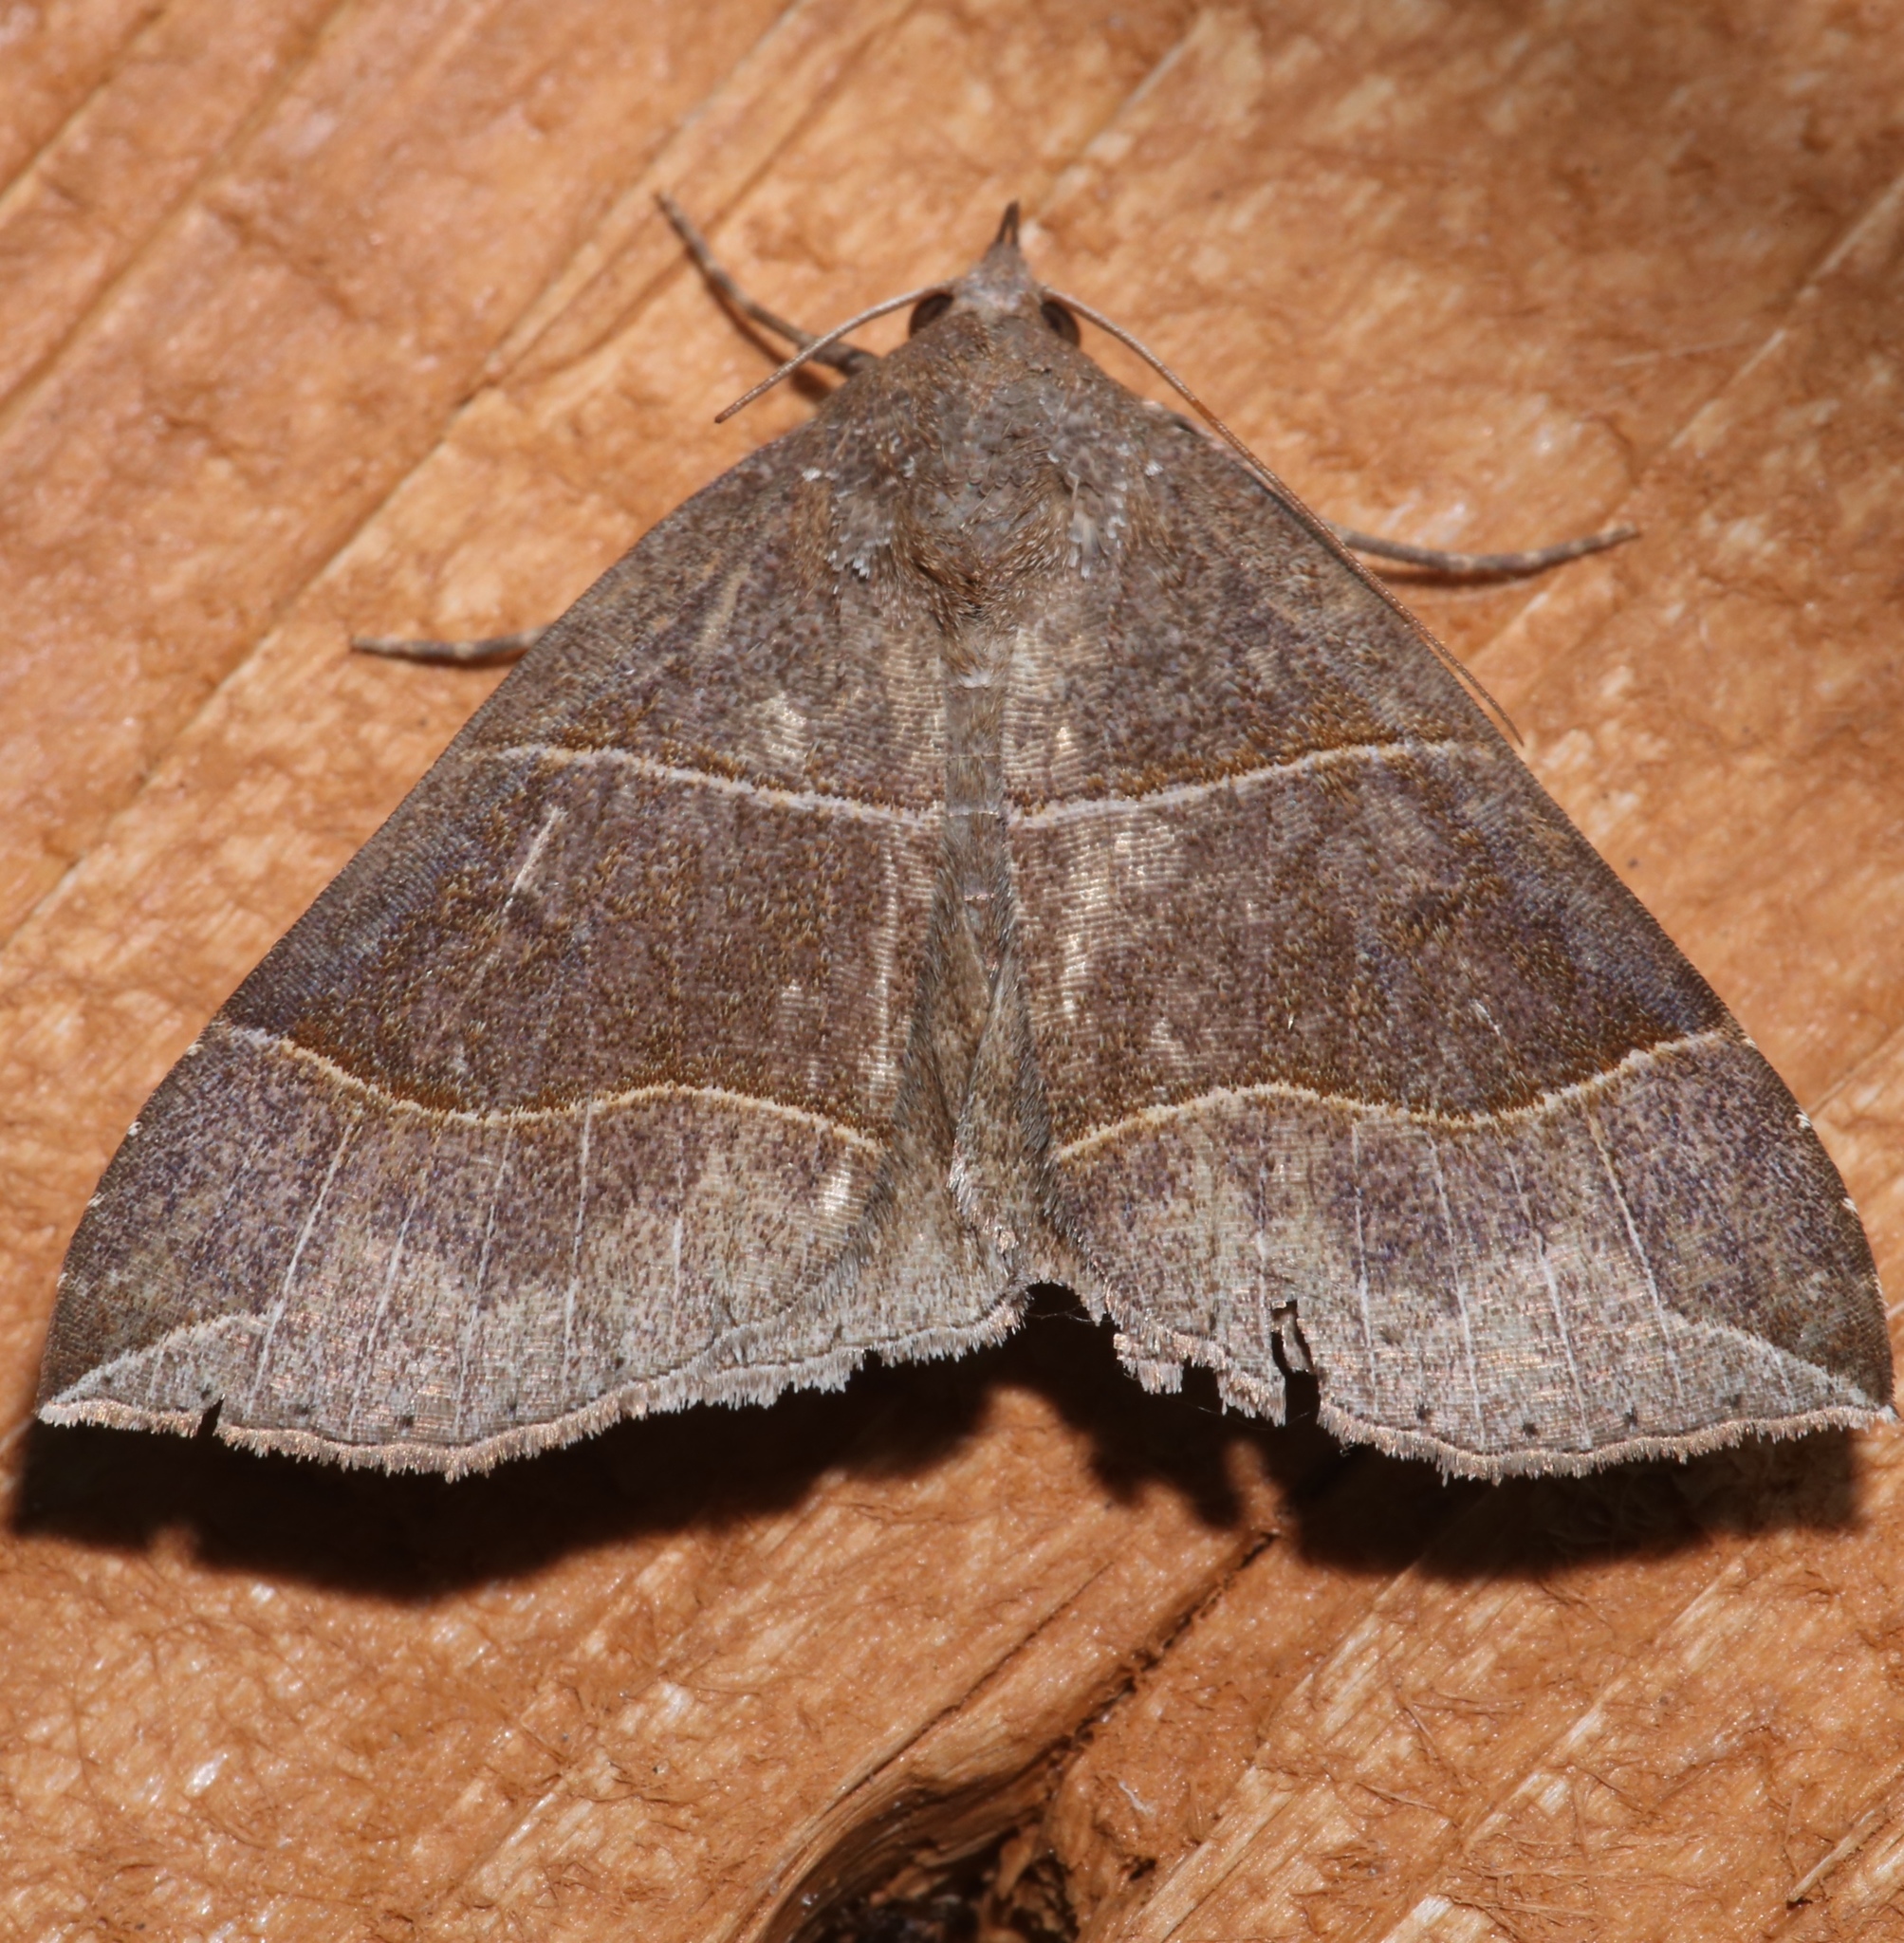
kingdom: Animalia
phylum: Arthropoda
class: Insecta
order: Lepidoptera
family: Erebidae
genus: Parallelia
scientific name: Parallelia bistriaris
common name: Maple looper moth
